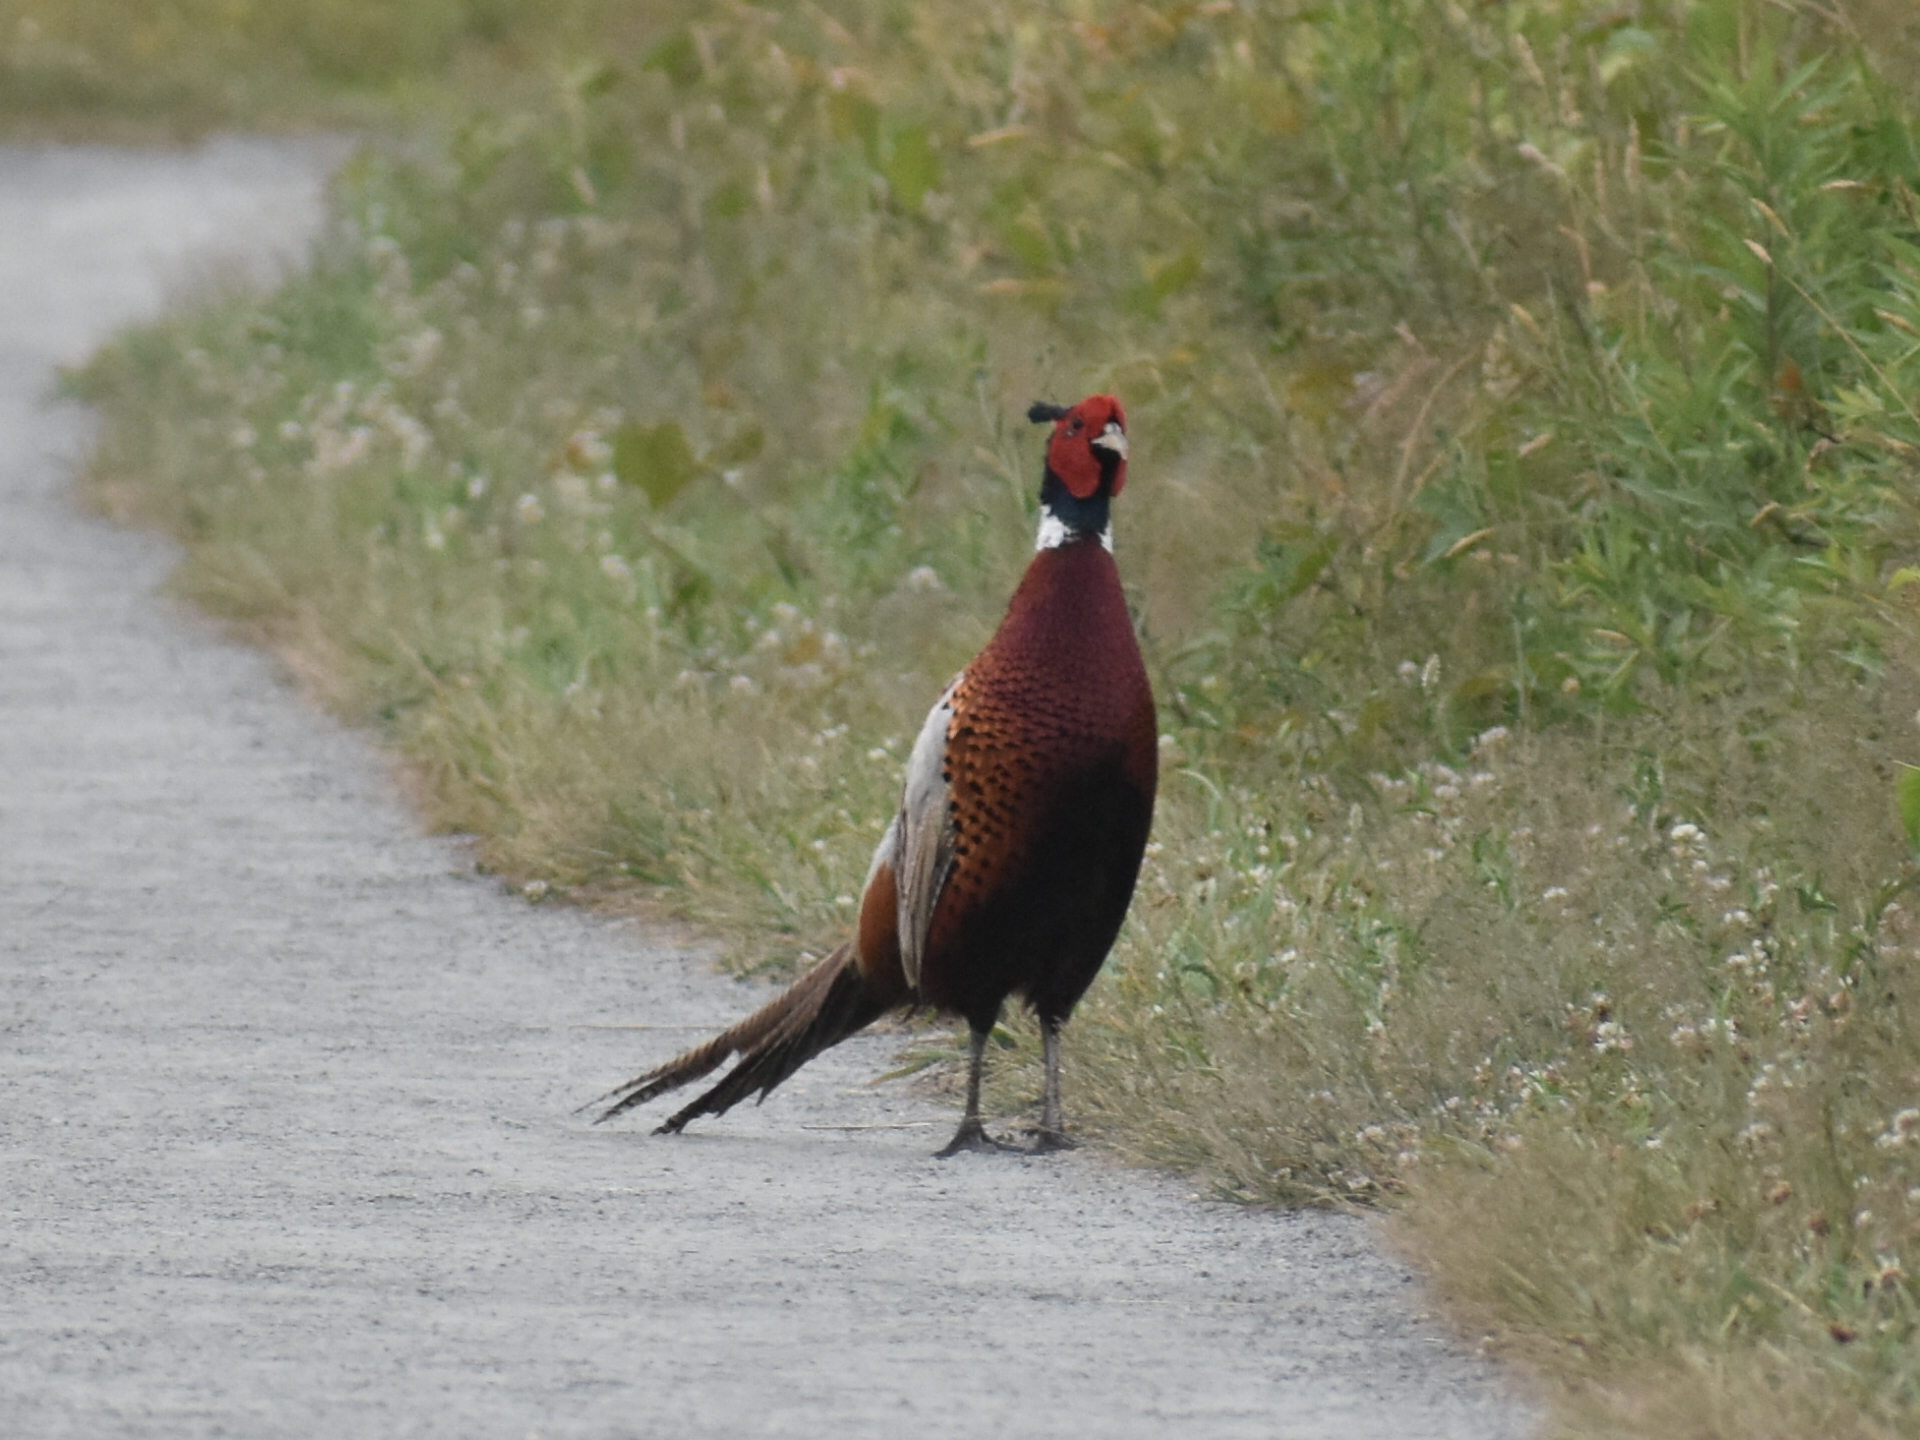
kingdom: Animalia
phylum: Chordata
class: Aves
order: Galliformes
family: Phasianidae
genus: Phasianus
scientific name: Phasianus colchicus
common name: Common pheasant
